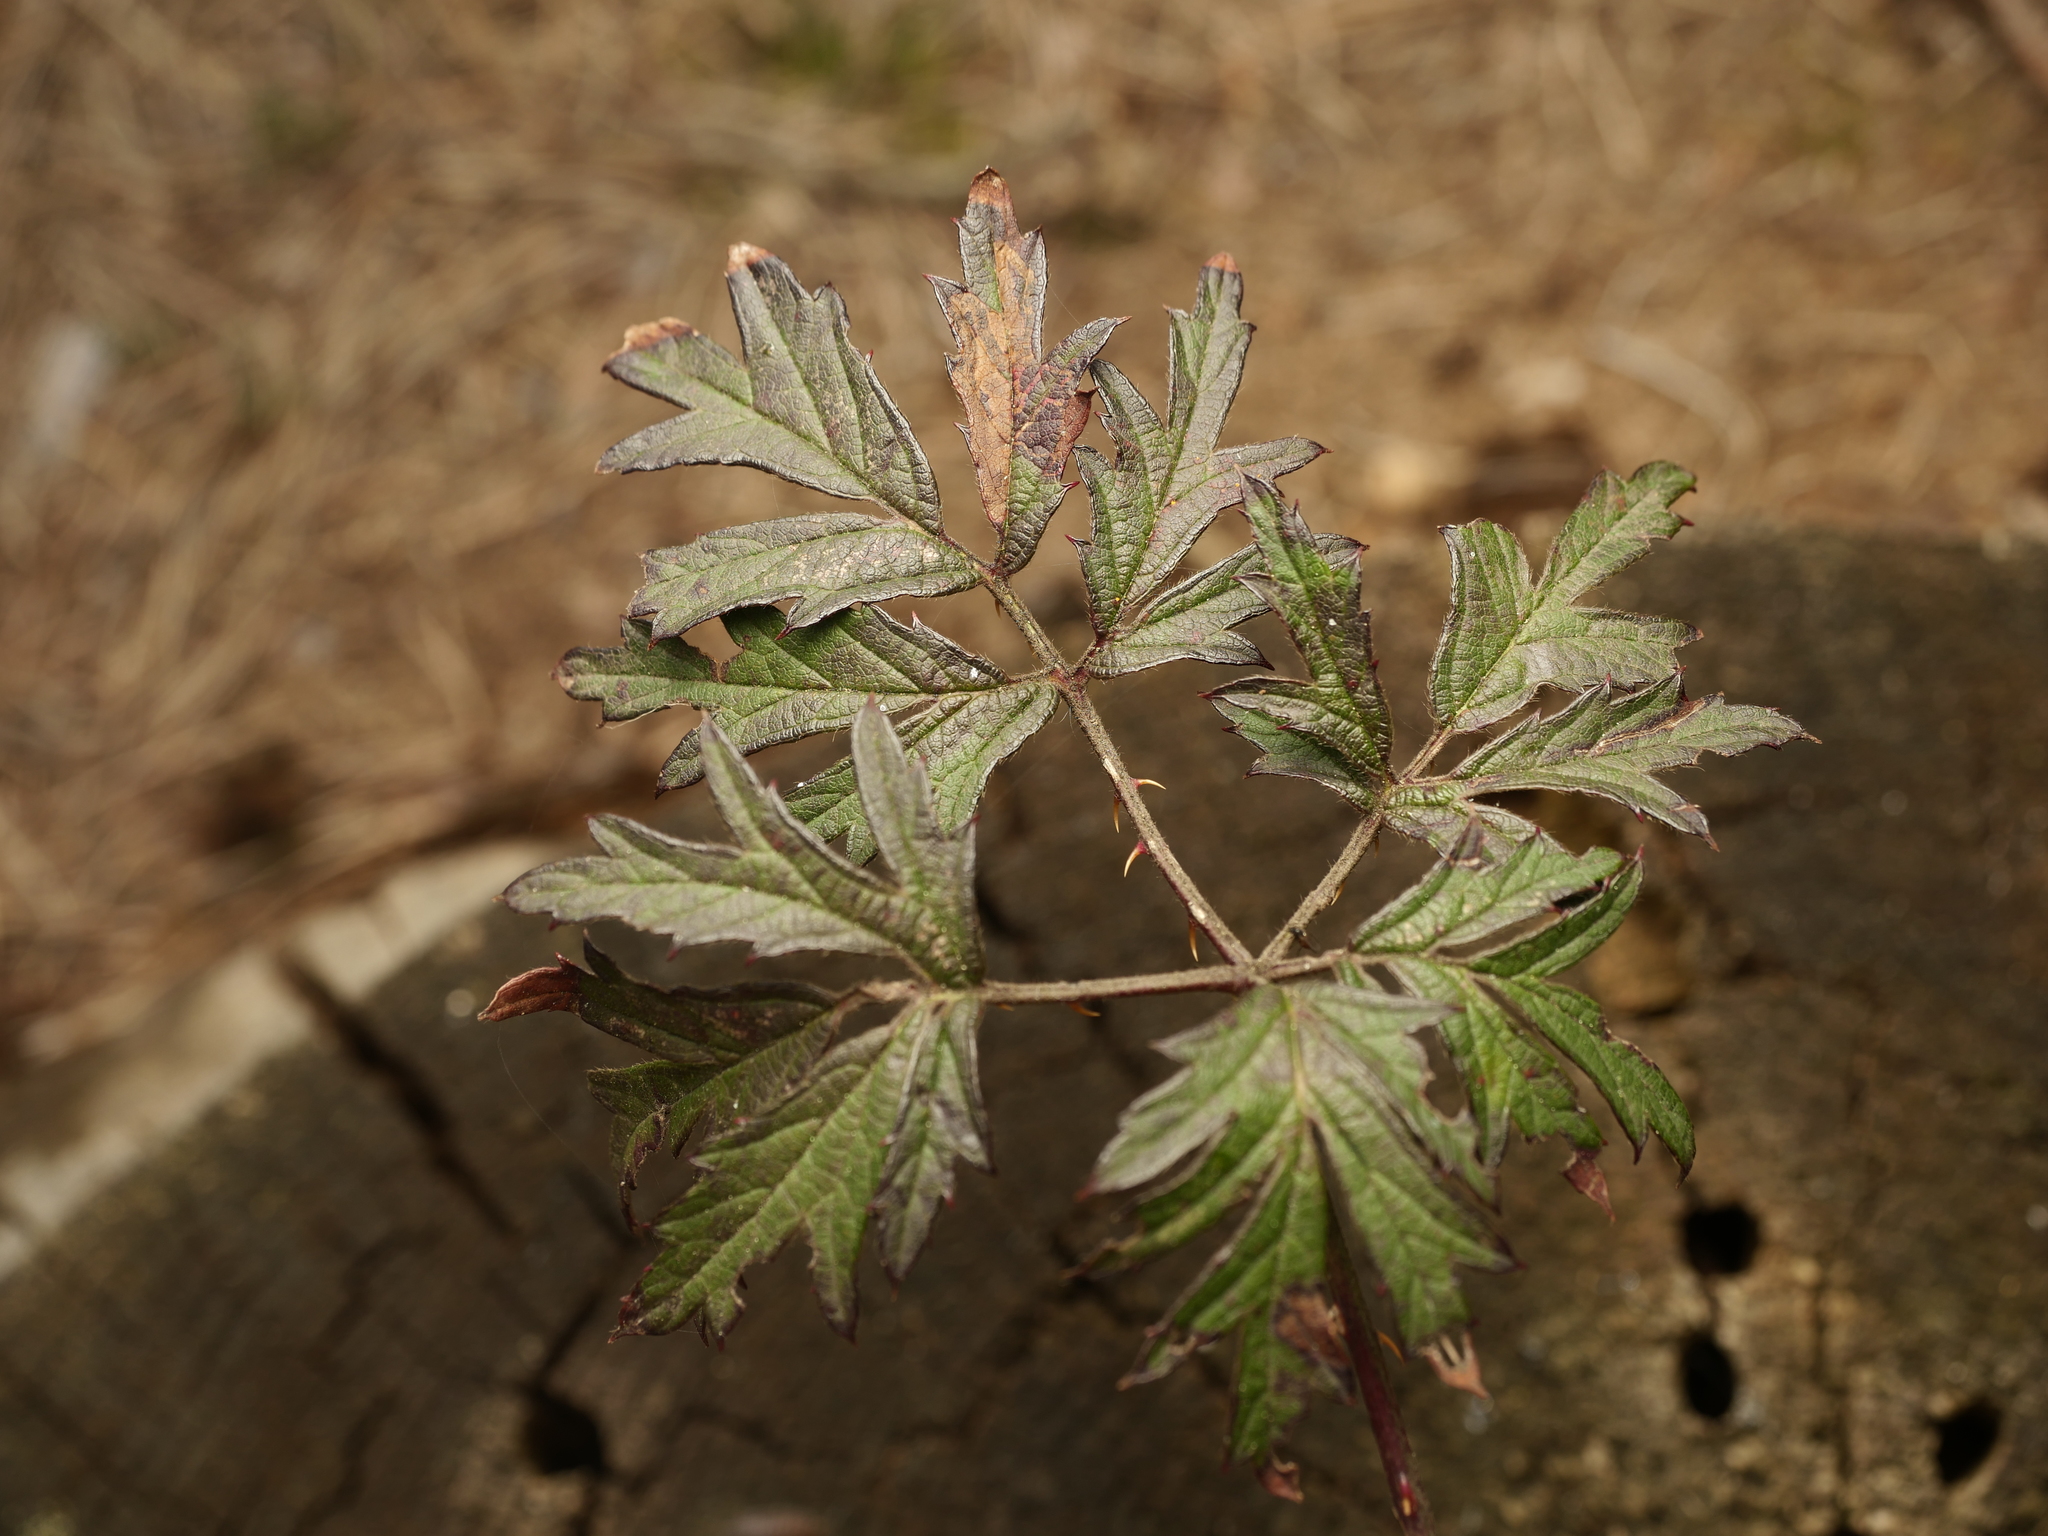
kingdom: Plantae
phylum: Tracheophyta
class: Magnoliopsida
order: Rosales
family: Rosaceae
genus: Rubus
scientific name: Rubus laciniatus
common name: Evergreen blackberry
